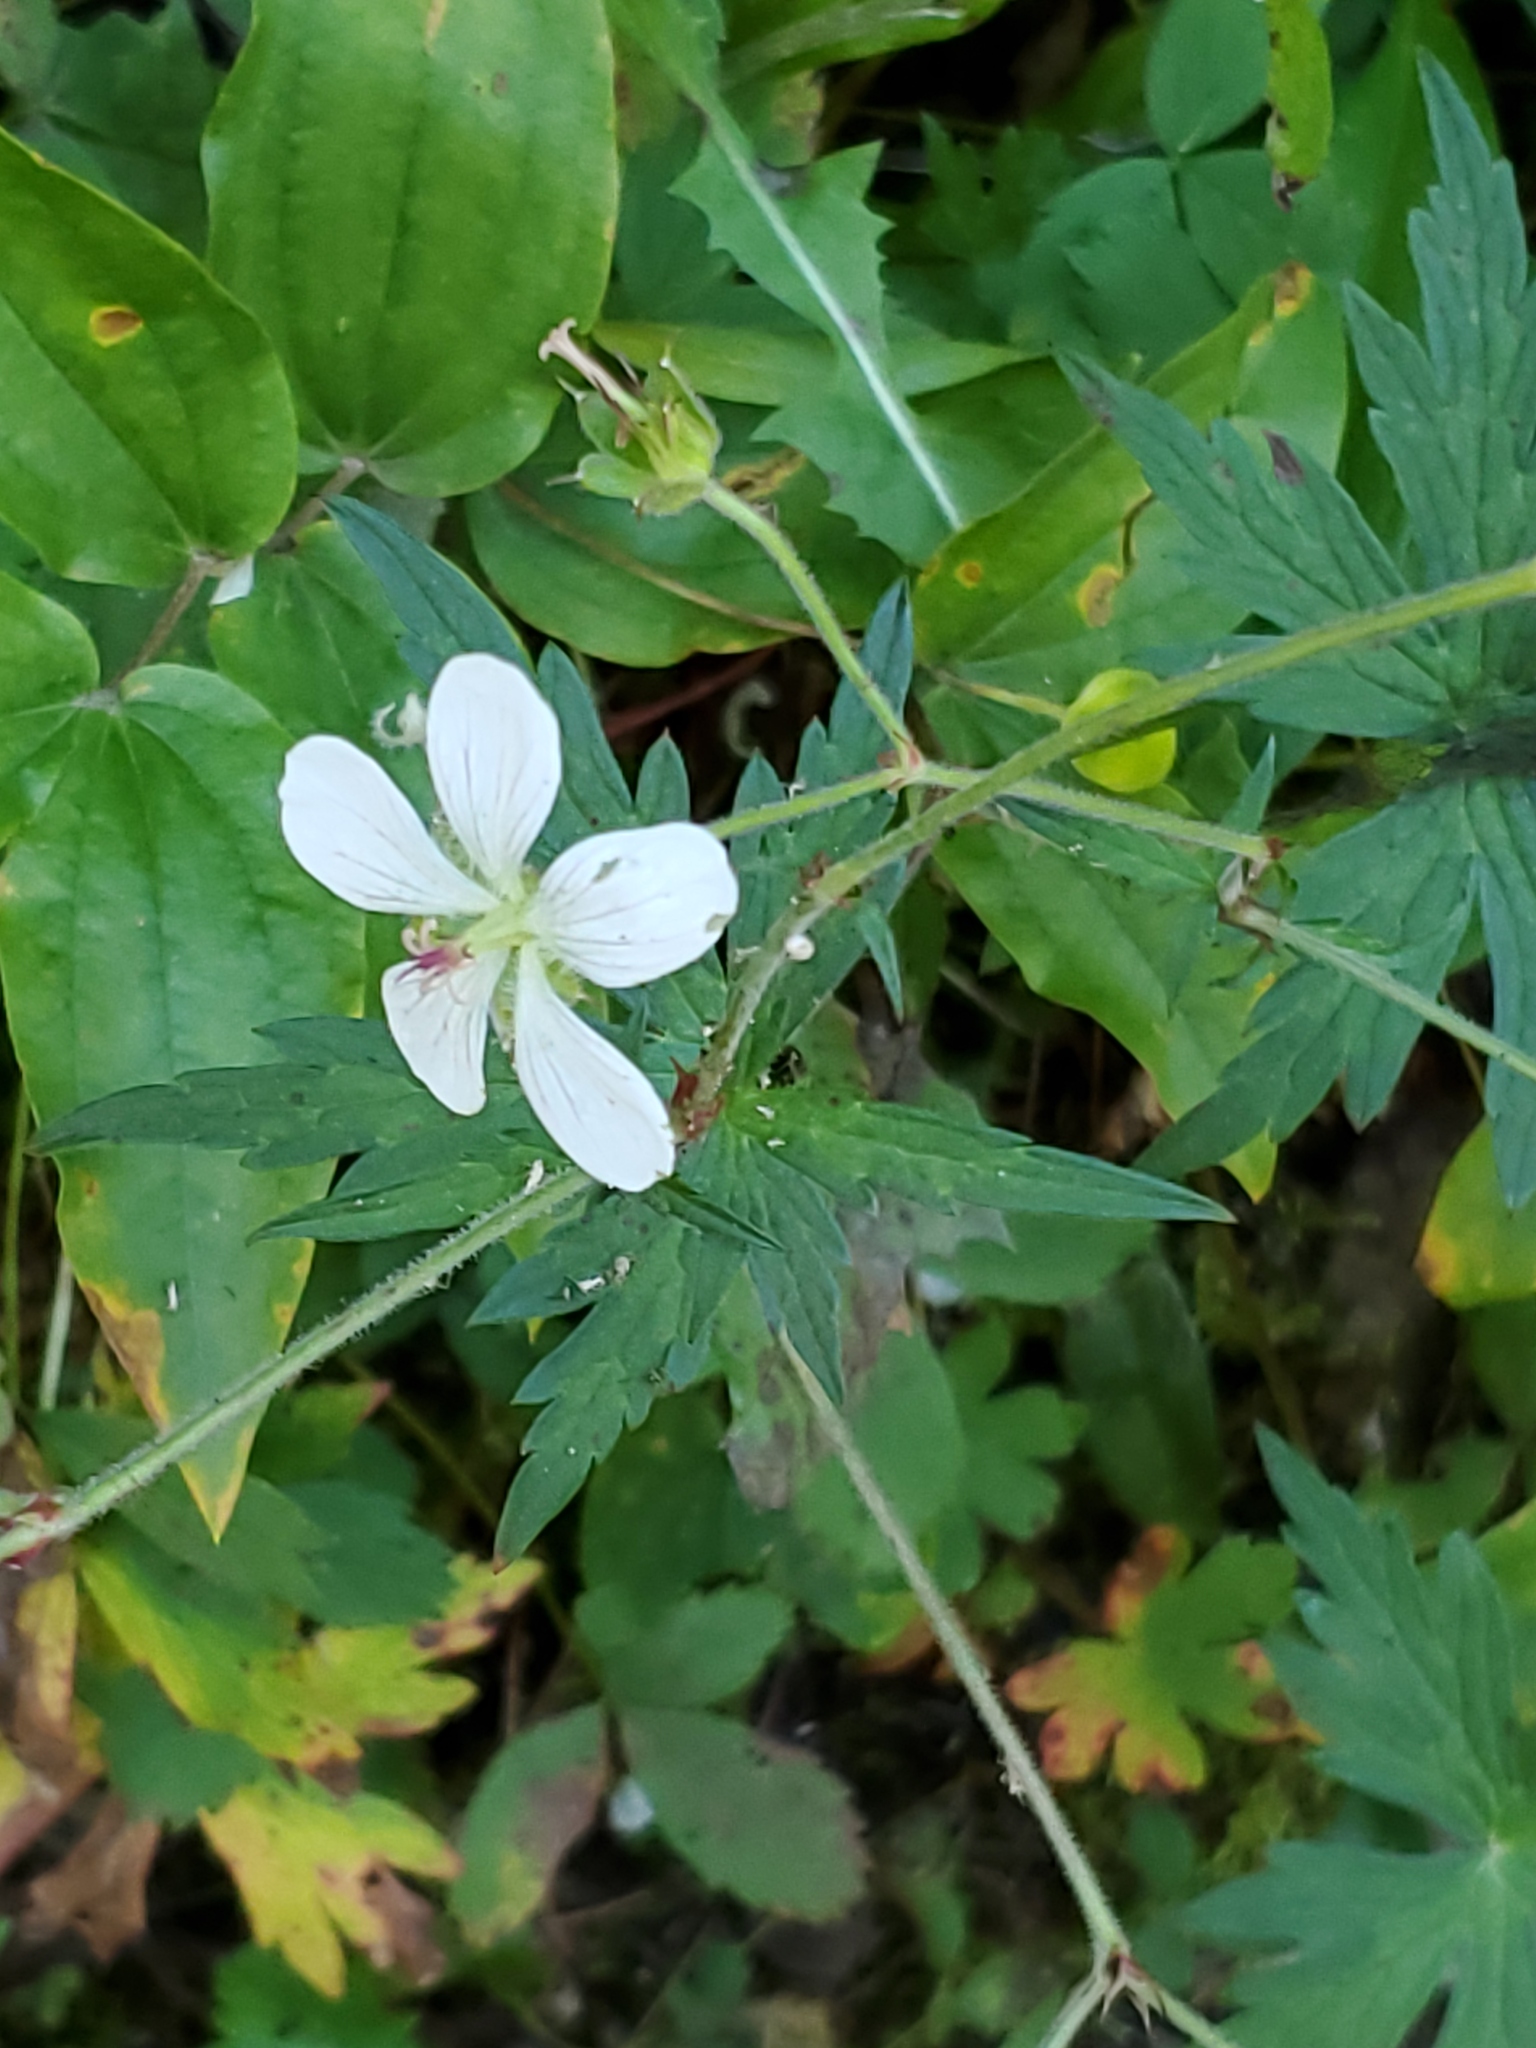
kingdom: Plantae
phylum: Tracheophyta
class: Magnoliopsida
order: Geraniales
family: Geraniaceae
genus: Geranium
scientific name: Geranium richardsonii
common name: Richardson's crane's-bill
